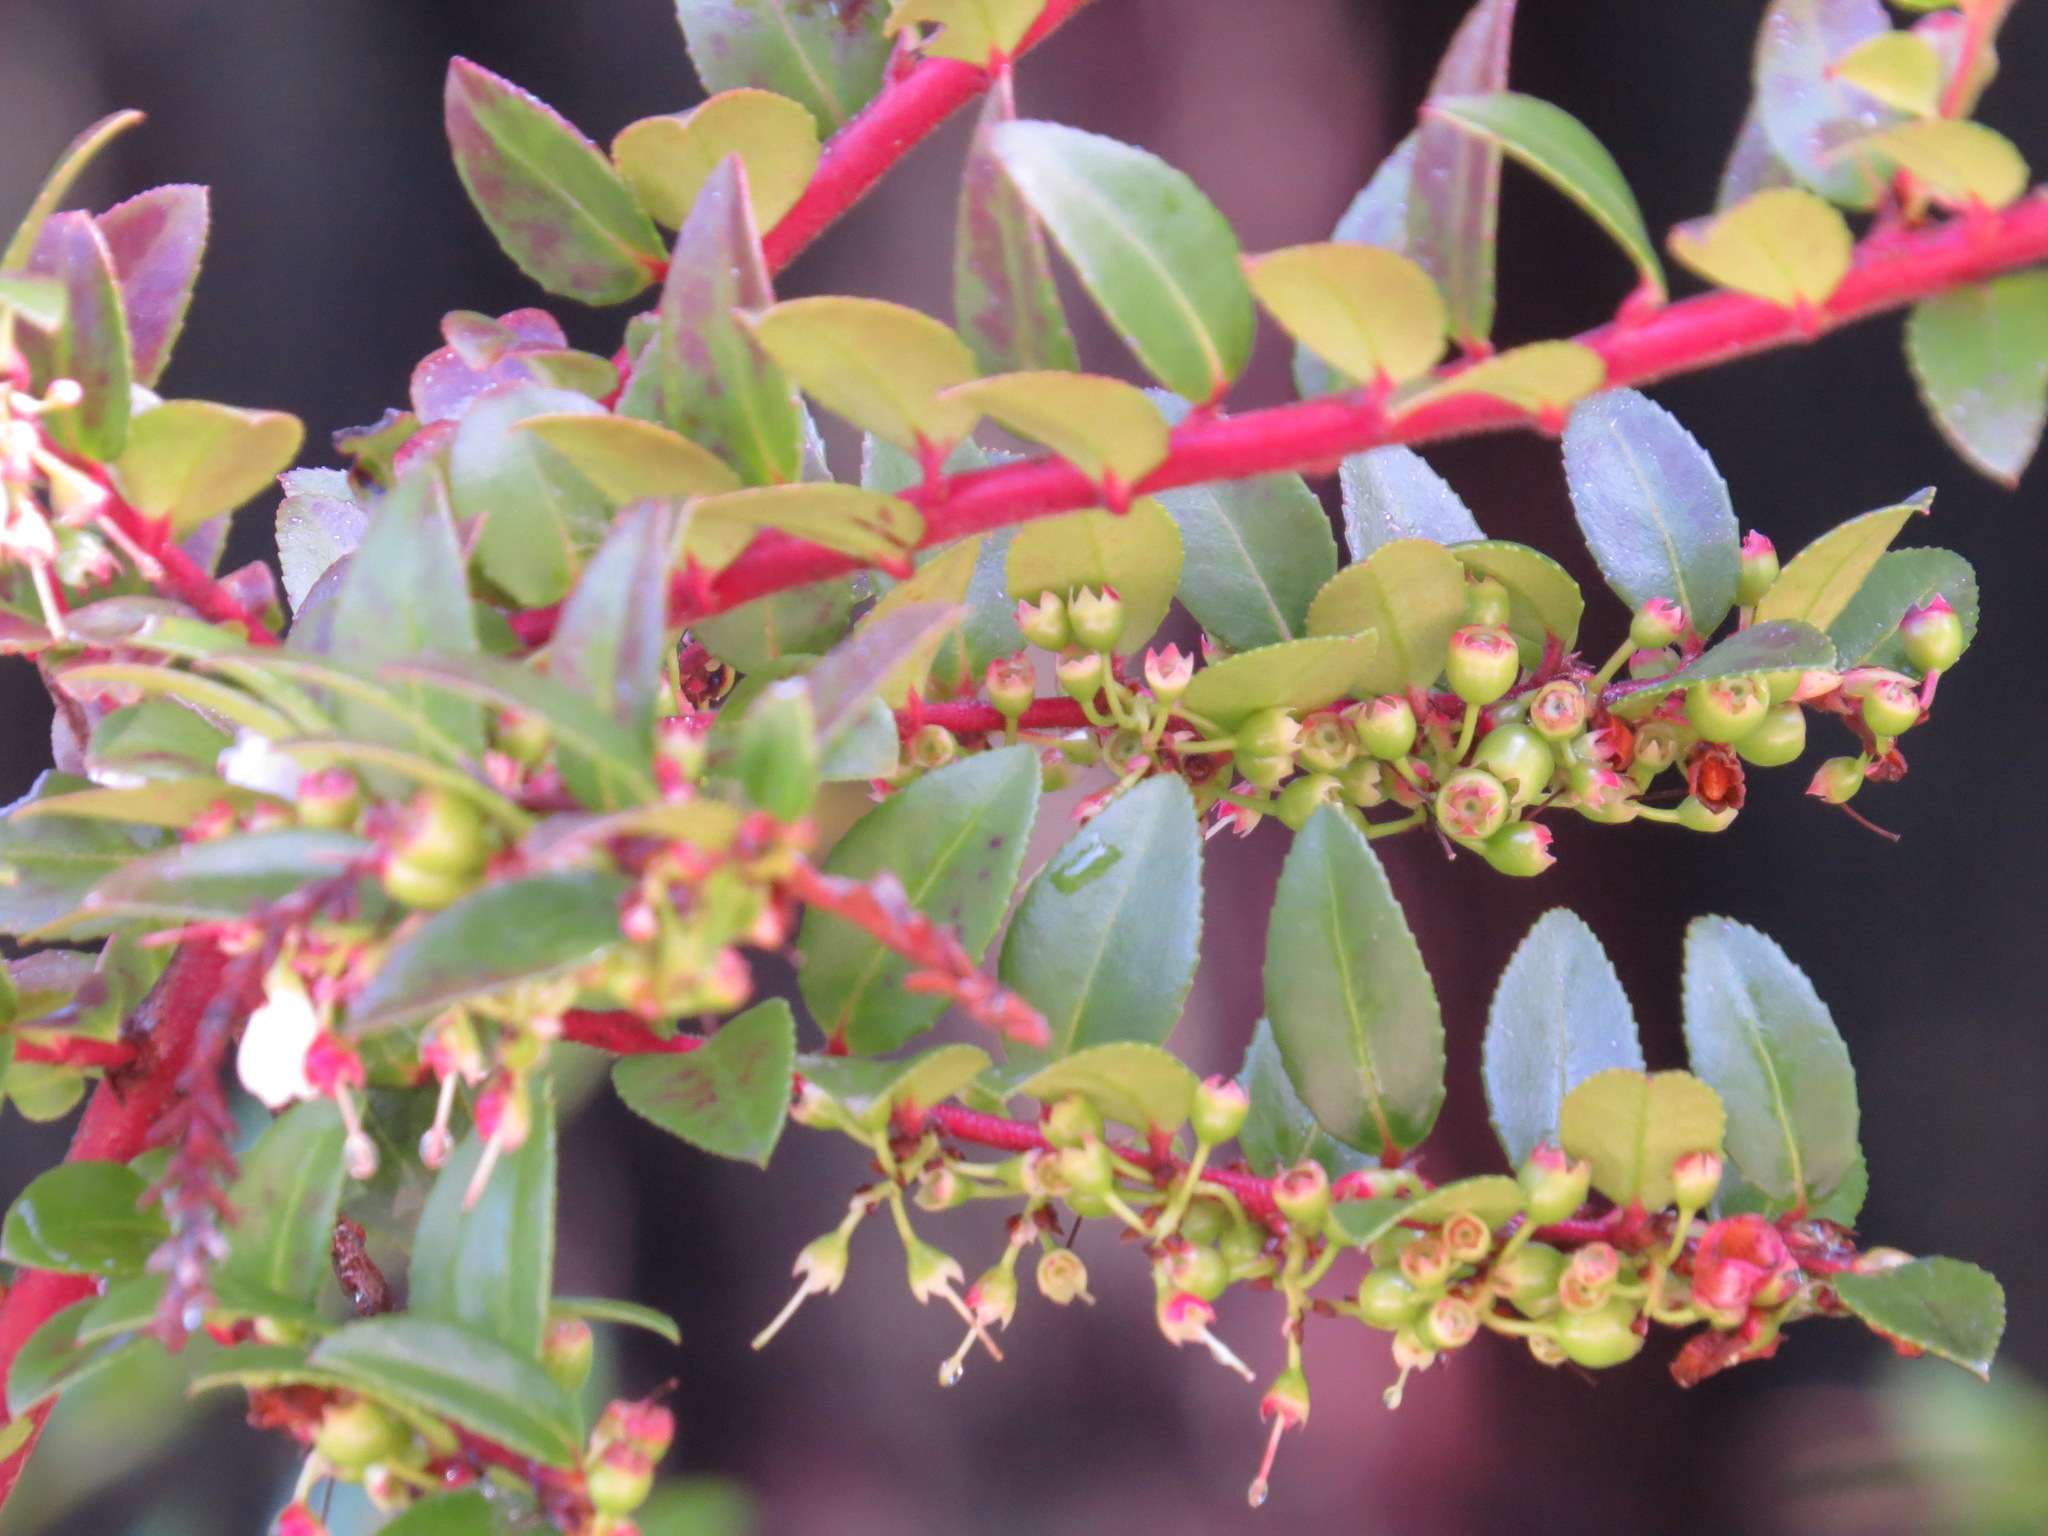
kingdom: Plantae
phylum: Tracheophyta
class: Magnoliopsida
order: Ericales
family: Ericaceae
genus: Vaccinium
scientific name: Vaccinium ovatum
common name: California-huckleberry
